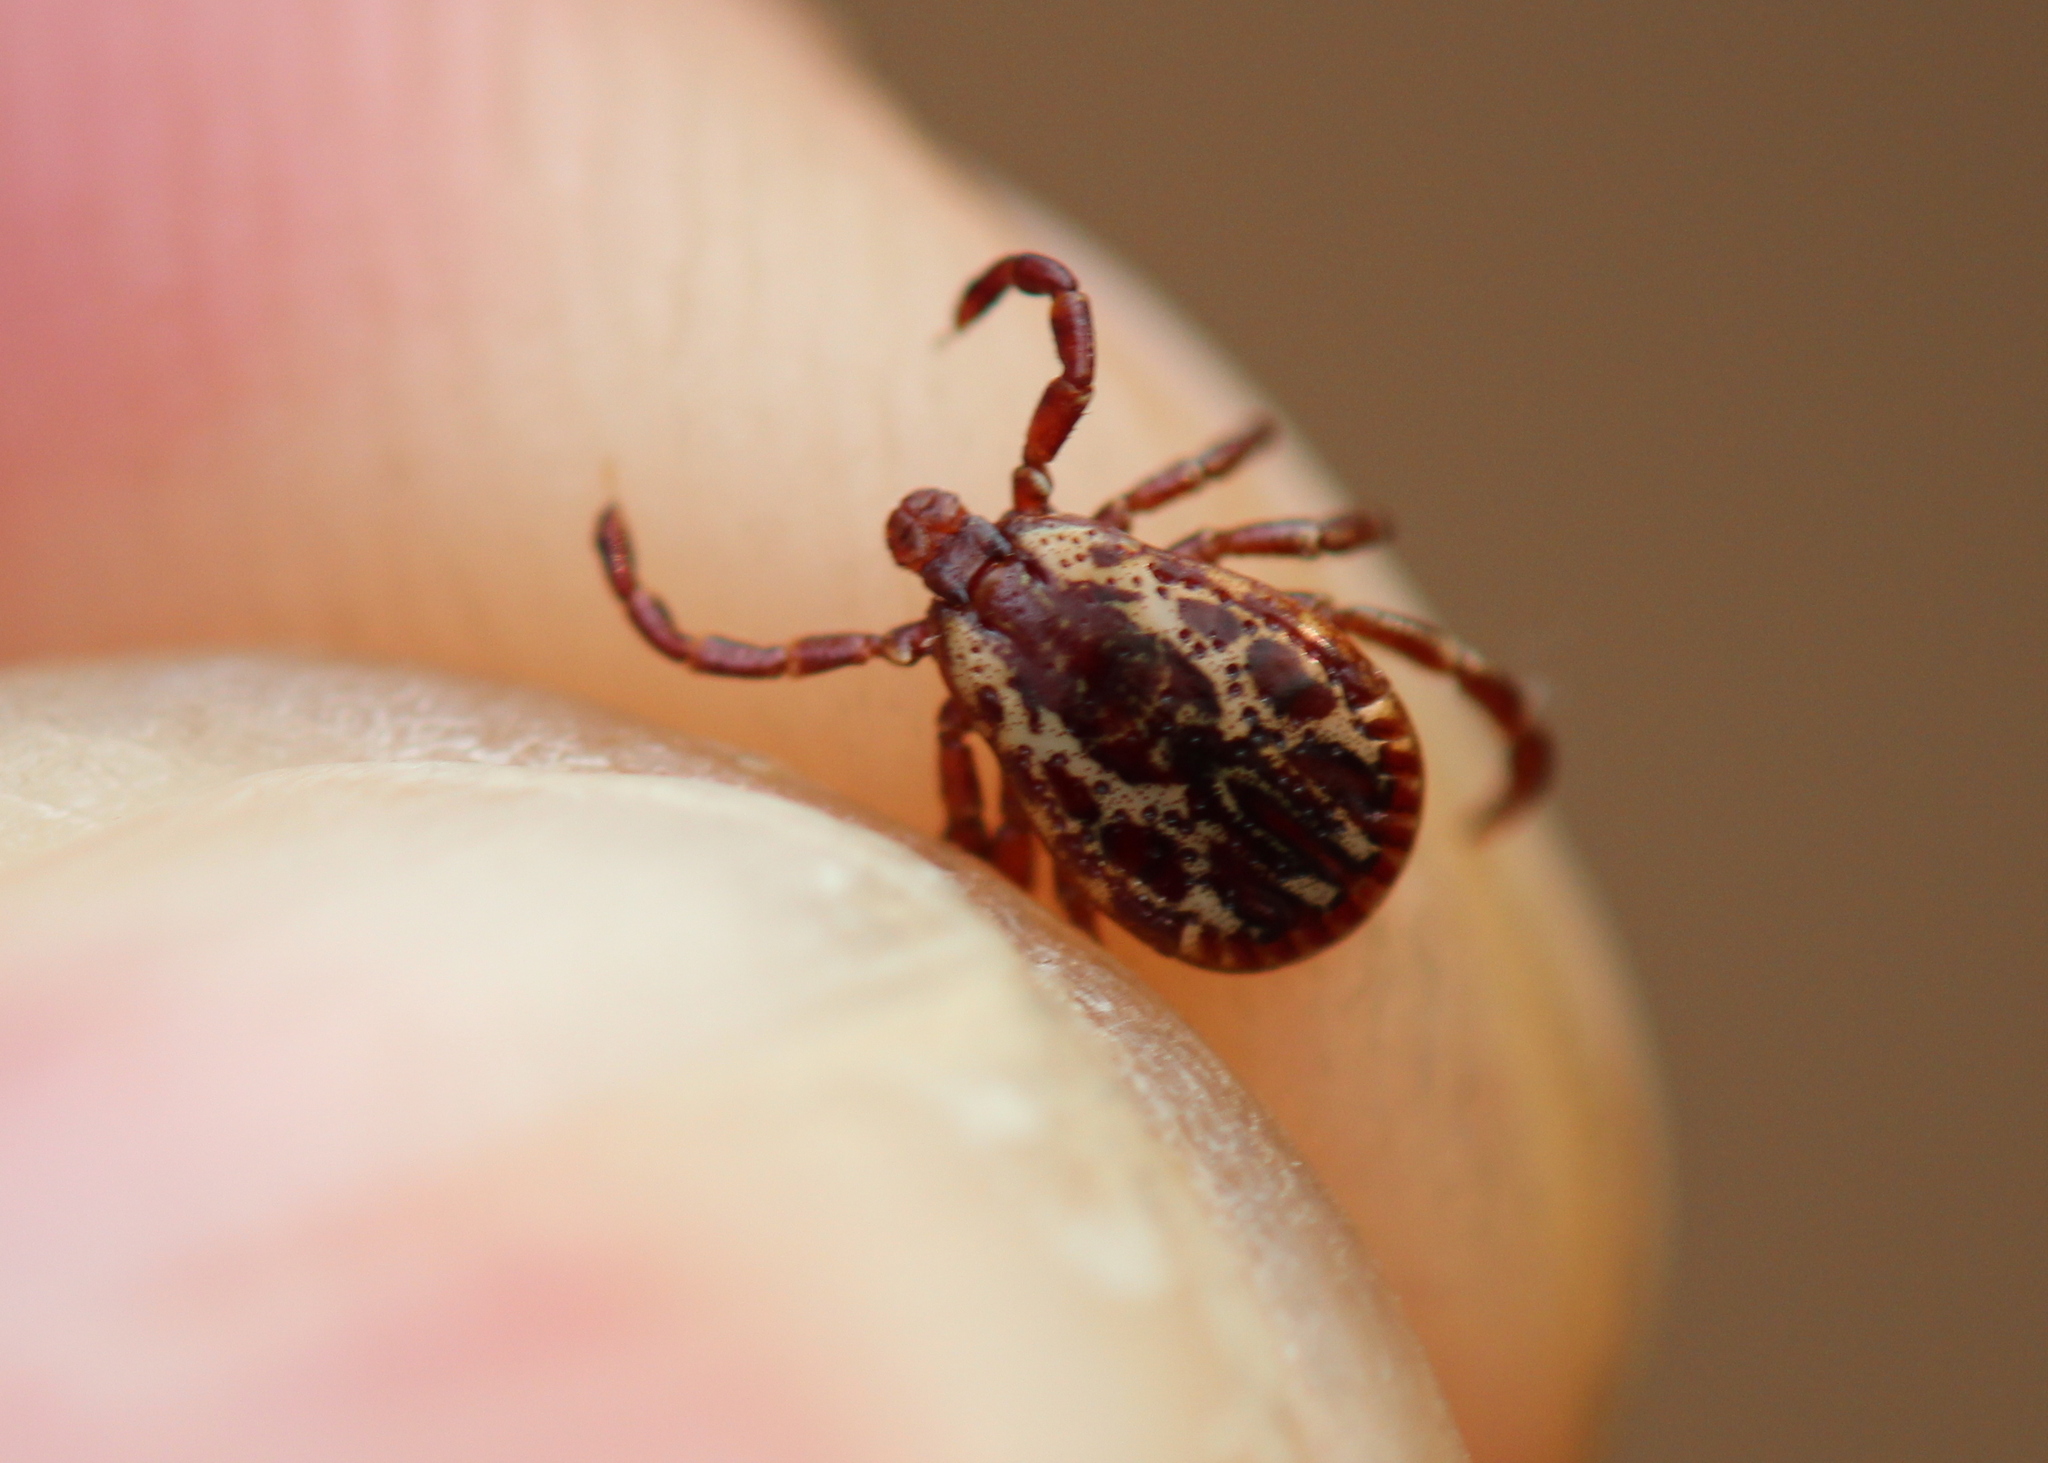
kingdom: Animalia
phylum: Arthropoda
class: Arachnida
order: Ixodida
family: Ixodidae
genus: Dermacentor
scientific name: Dermacentor variabilis
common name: American dog tick
